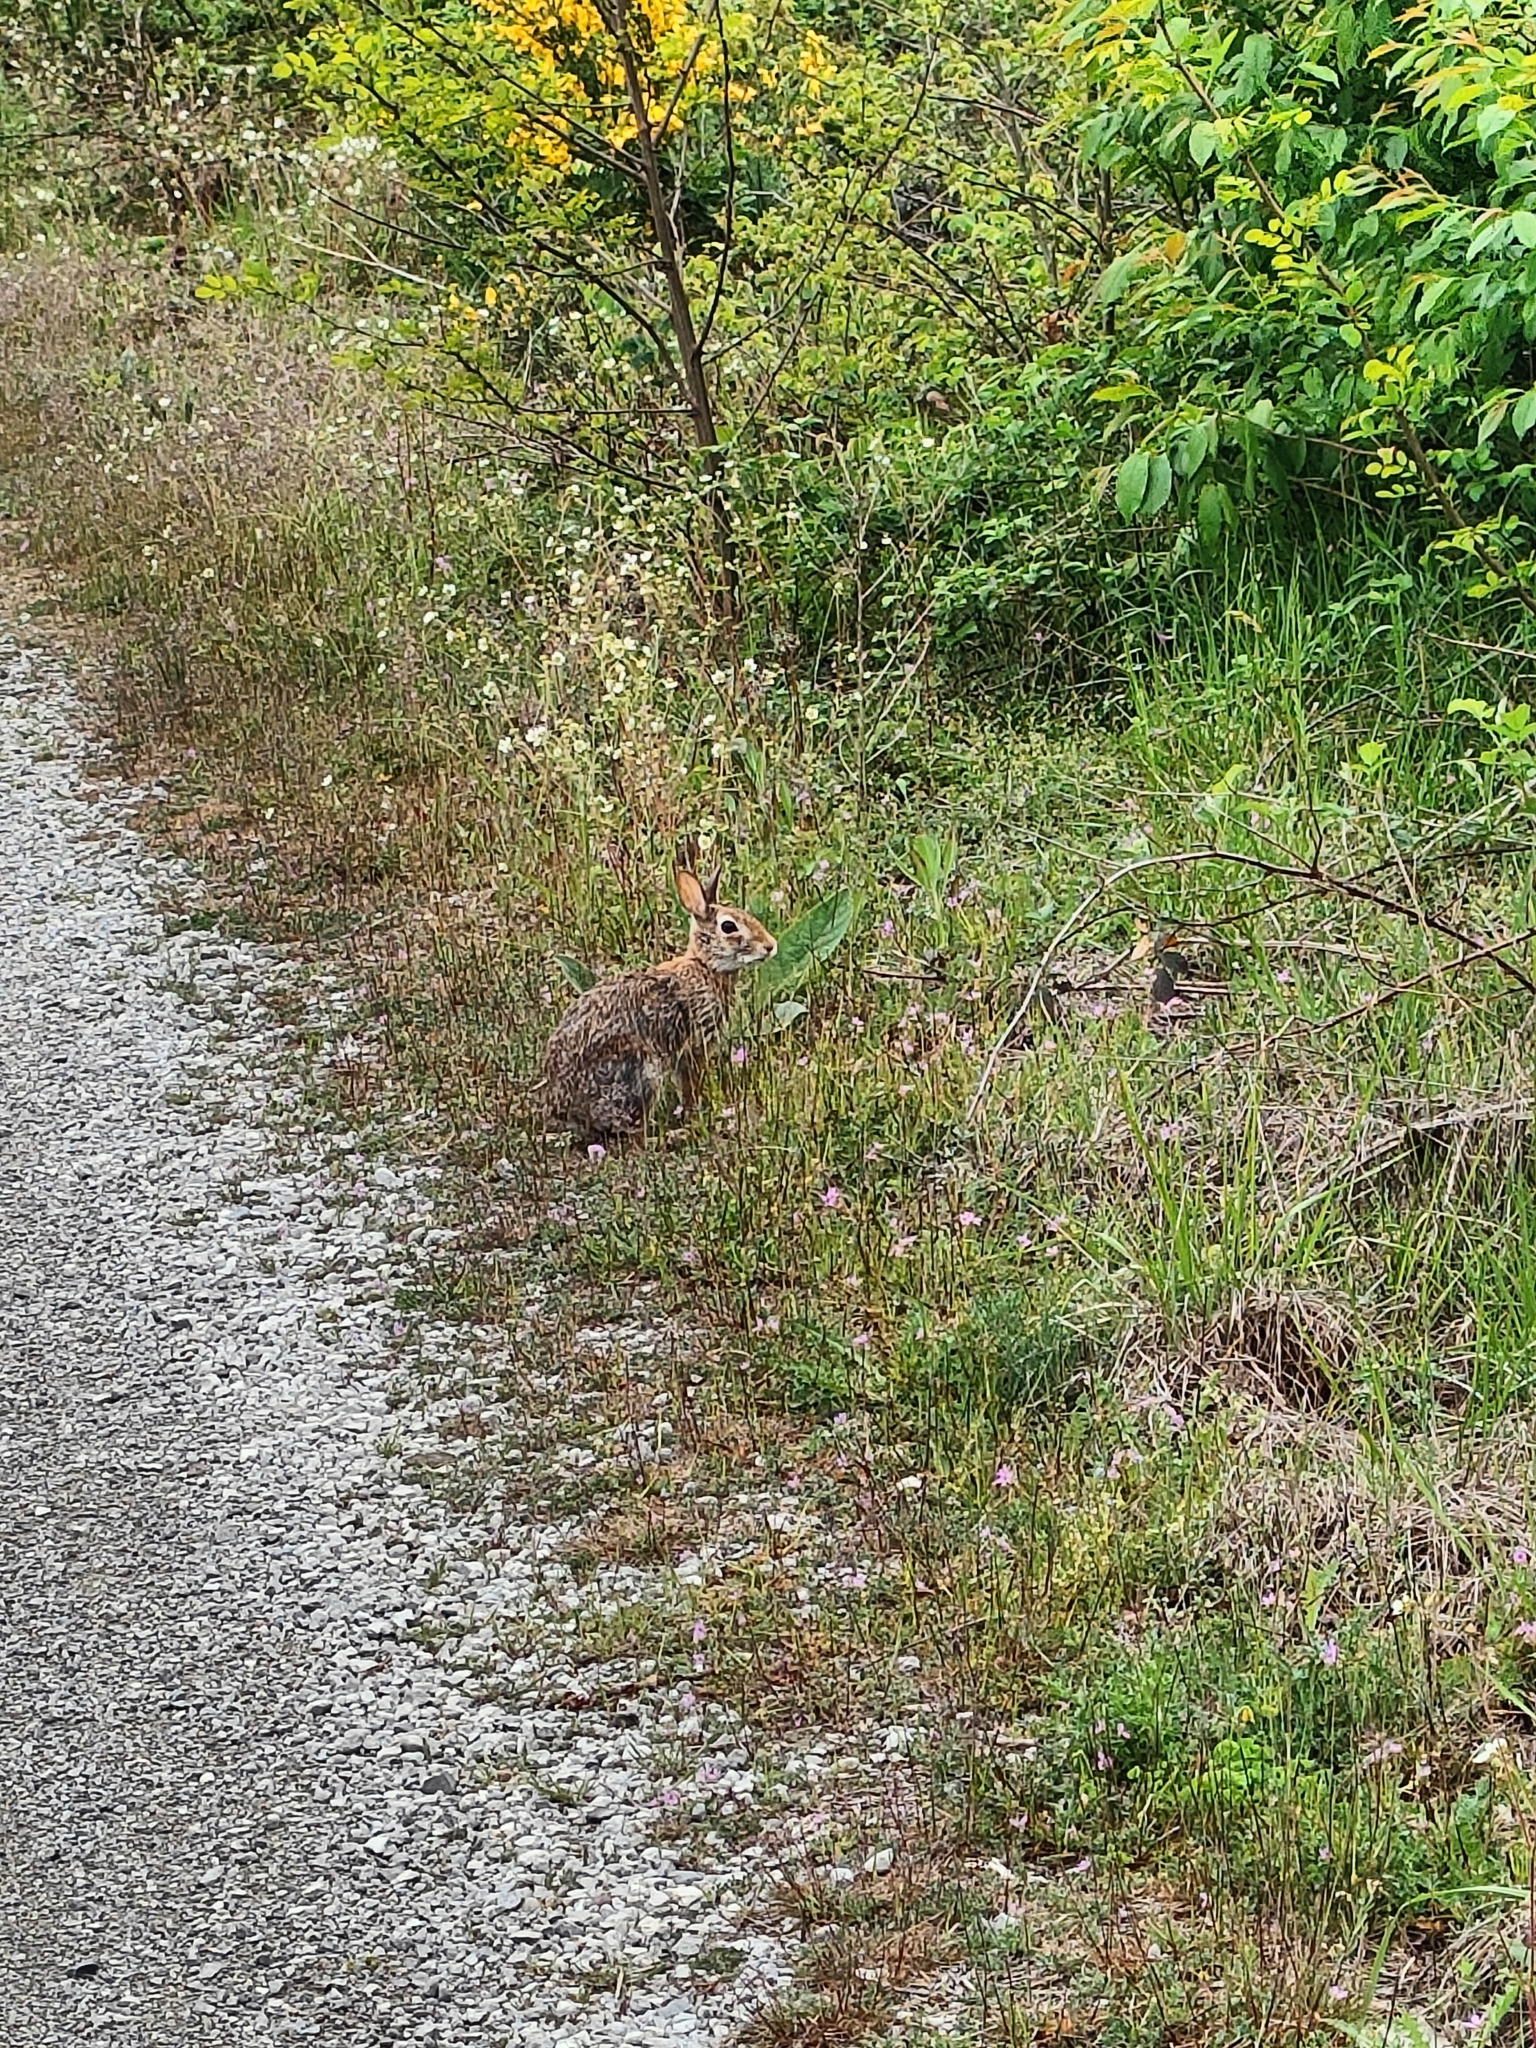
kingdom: Animalia
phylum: Chordata
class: Mammalia
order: Lagomorpha
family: Leporidae
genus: Sylvilagus
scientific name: Sylvilagus floridanus
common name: Eastern cottontail
